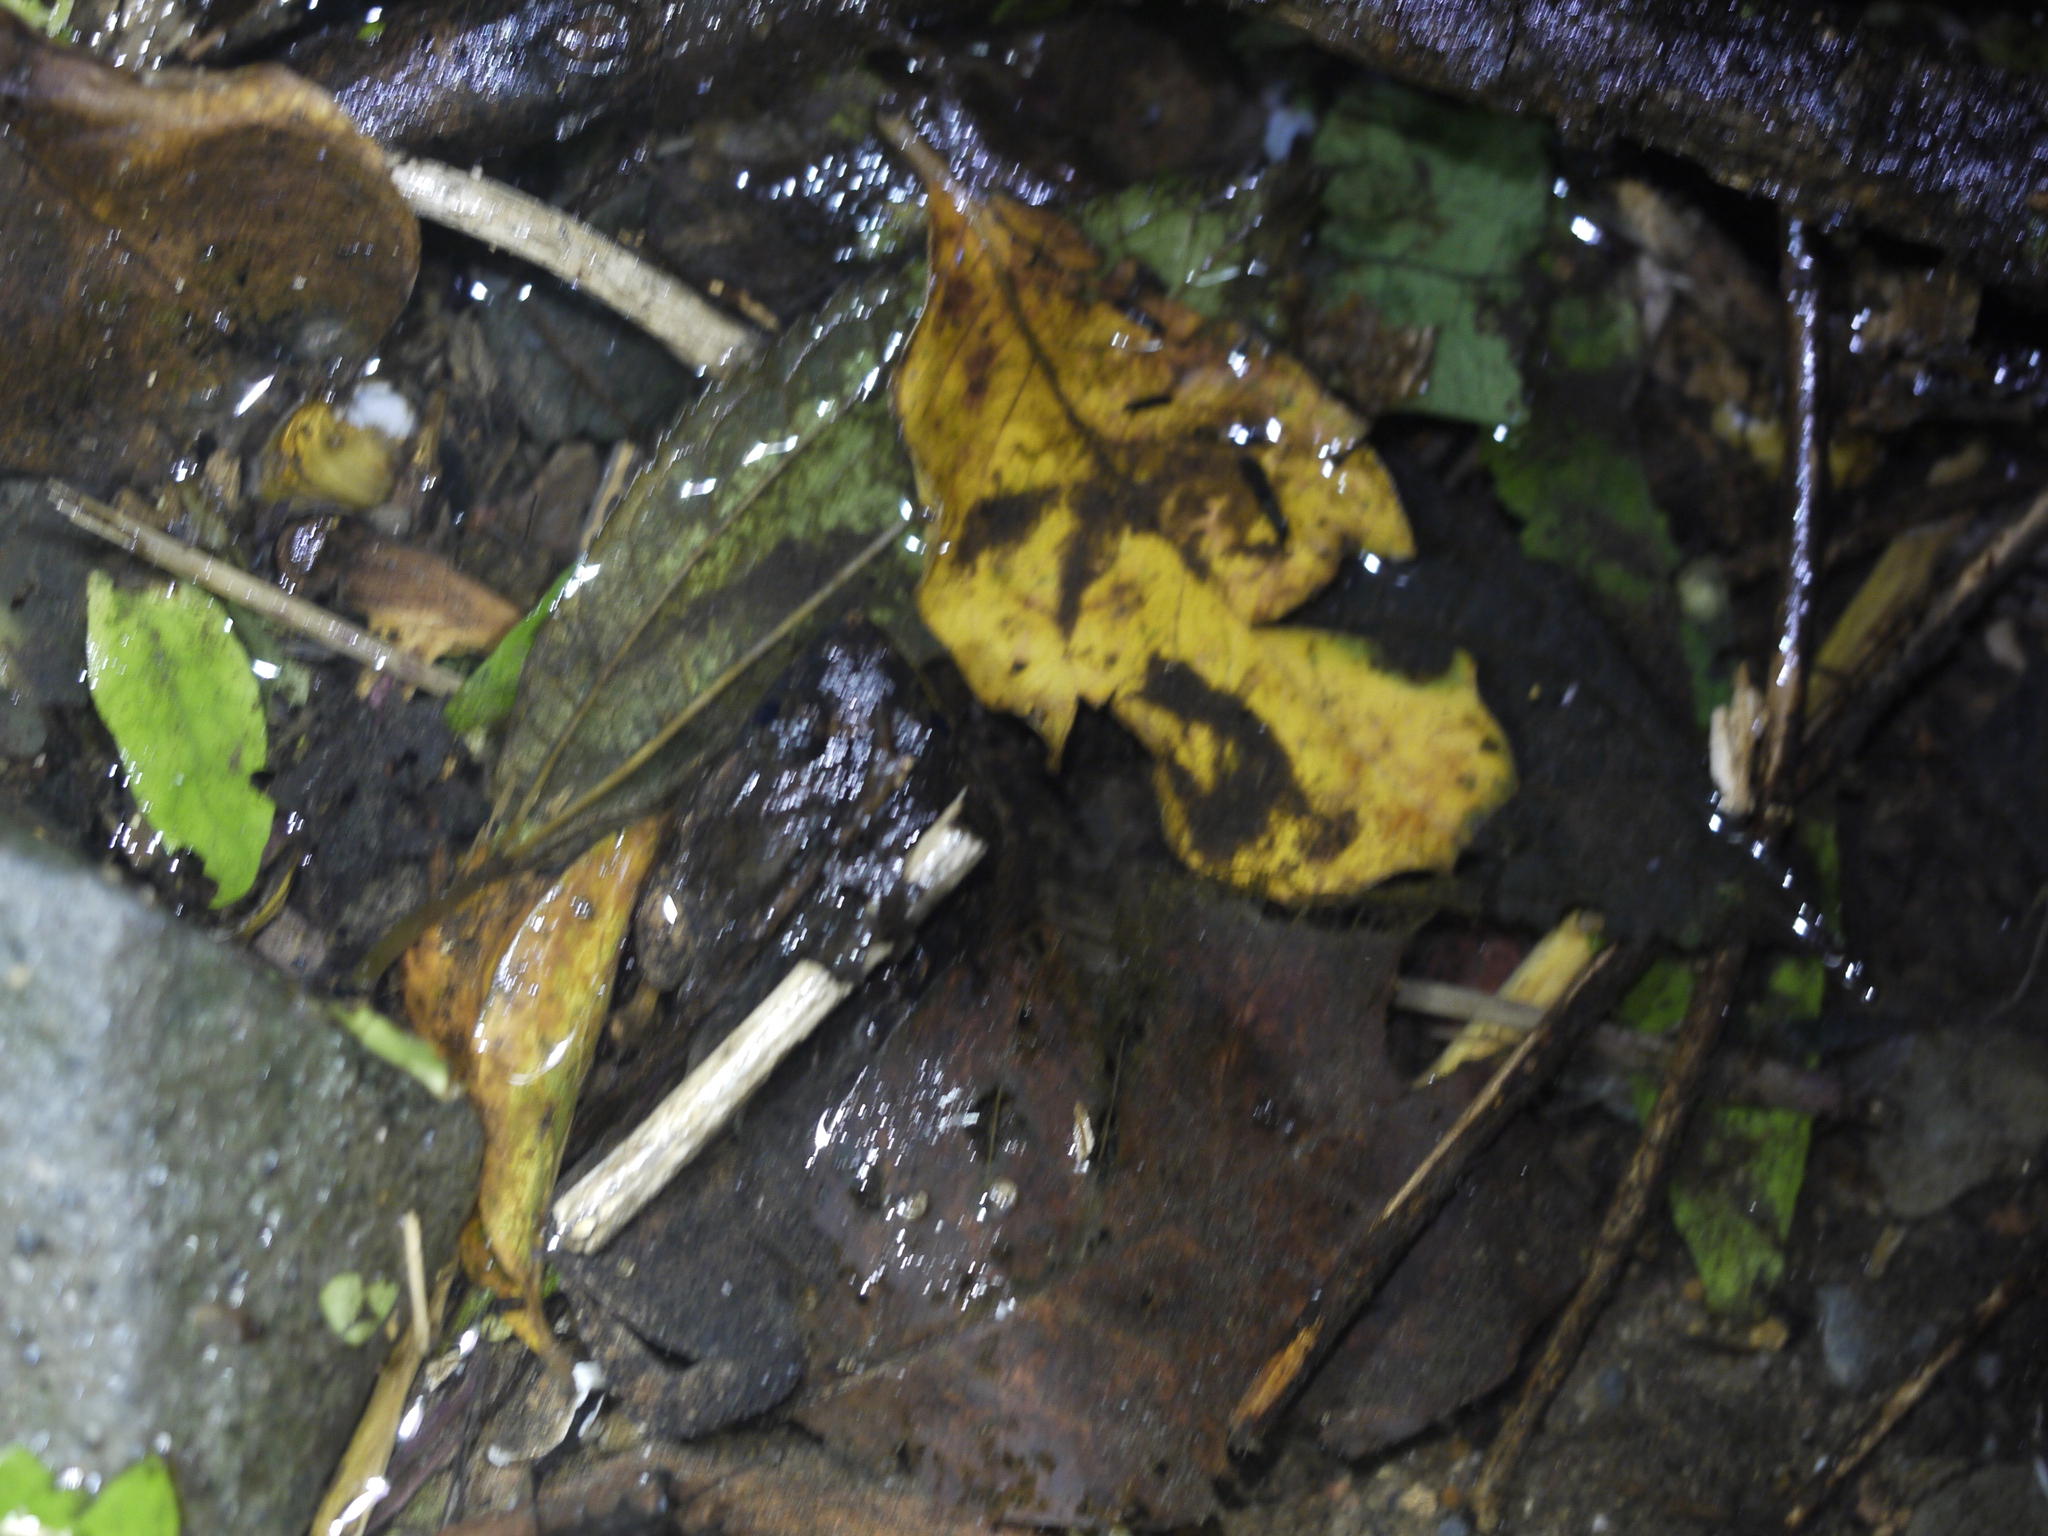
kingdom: Animalia
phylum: Chordata
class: Amphibia
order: Anura
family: Dicroglossidae
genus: Limnonectes
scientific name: Limnonectes fujianensis
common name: Fujian large-headed frog
